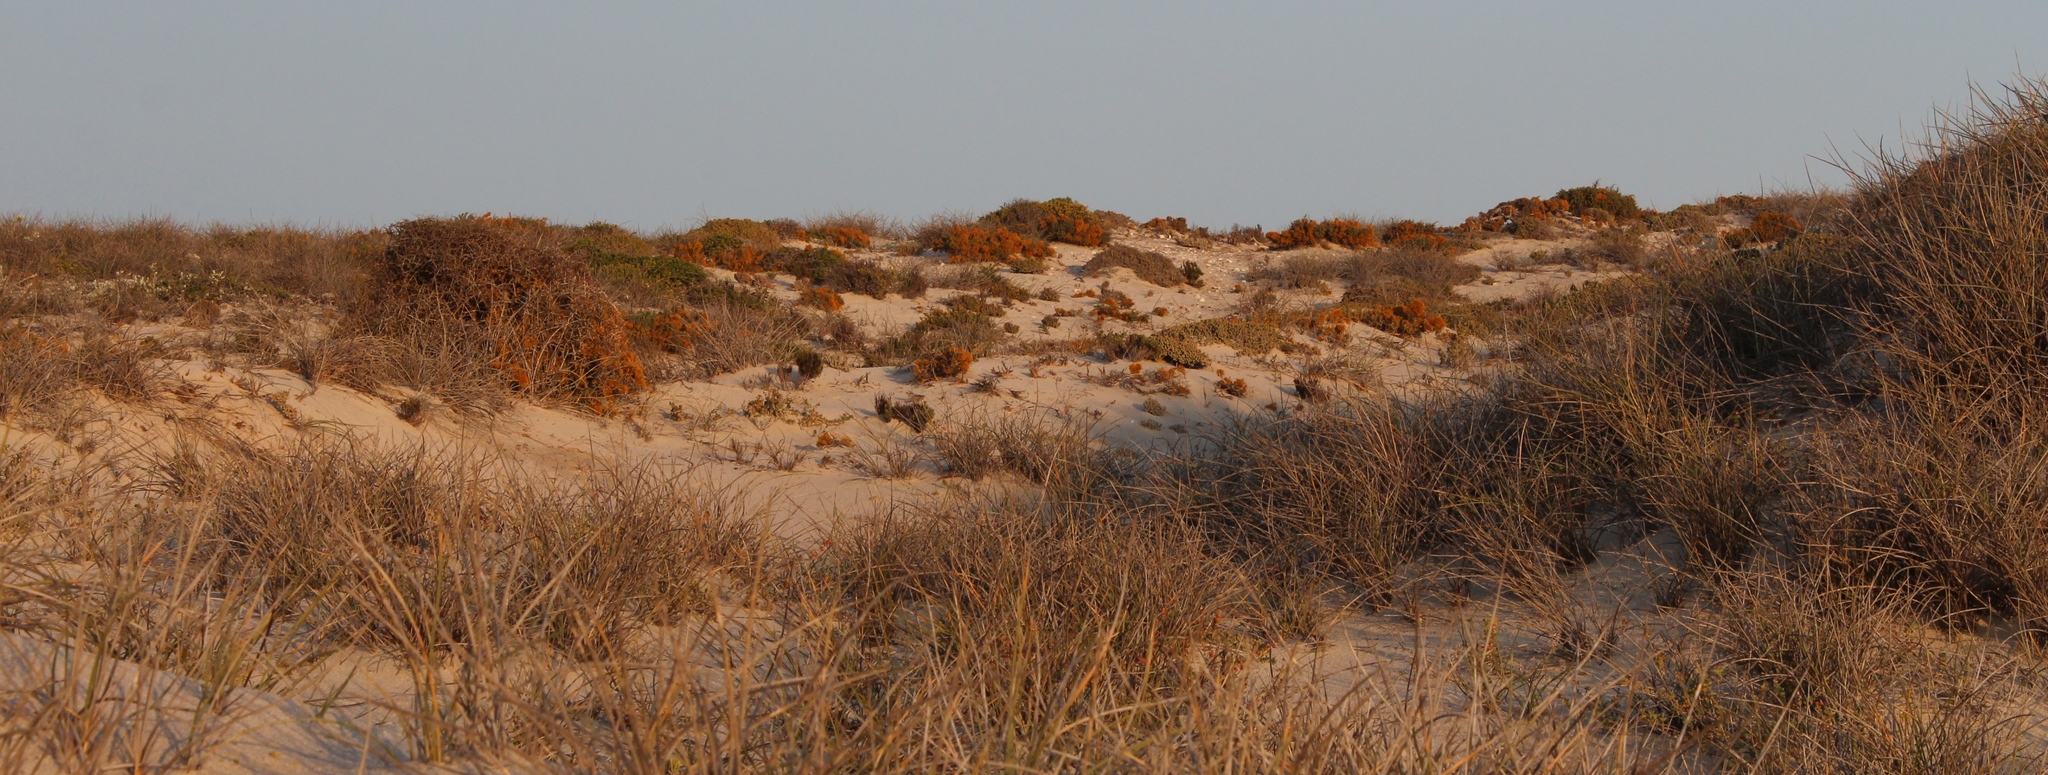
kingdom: Fungi
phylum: Ascomycota
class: Lecanoromycetes
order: Teloschistales
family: Teloschistaceae
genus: Dufourea
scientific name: Dufourea flammea
